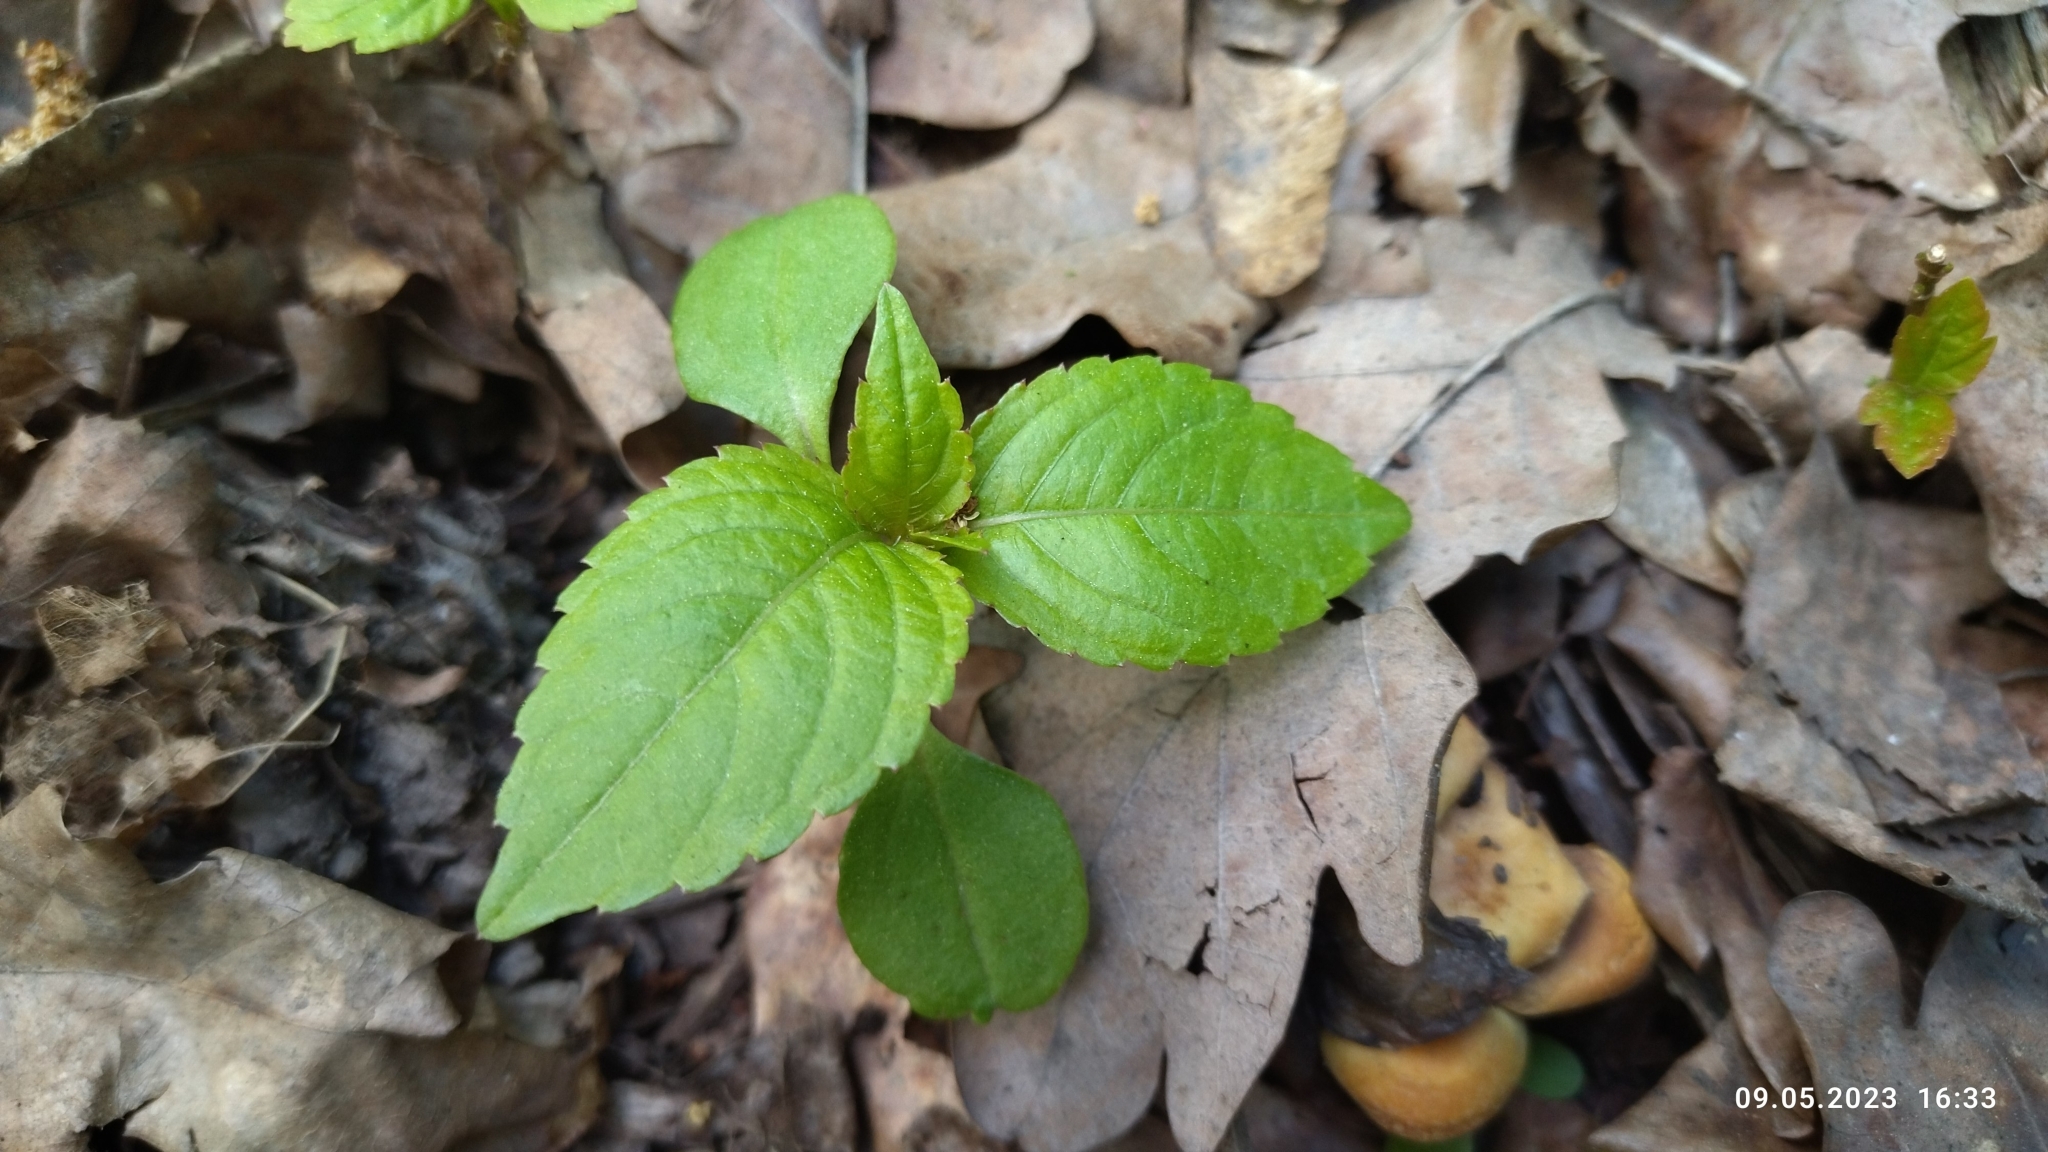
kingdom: Plantae
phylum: Tracheophyta
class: Magnoliopsida
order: Ericales
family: Balsaminaceae
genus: Impatiens
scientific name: Impatiens parviflora
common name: Small balsam
